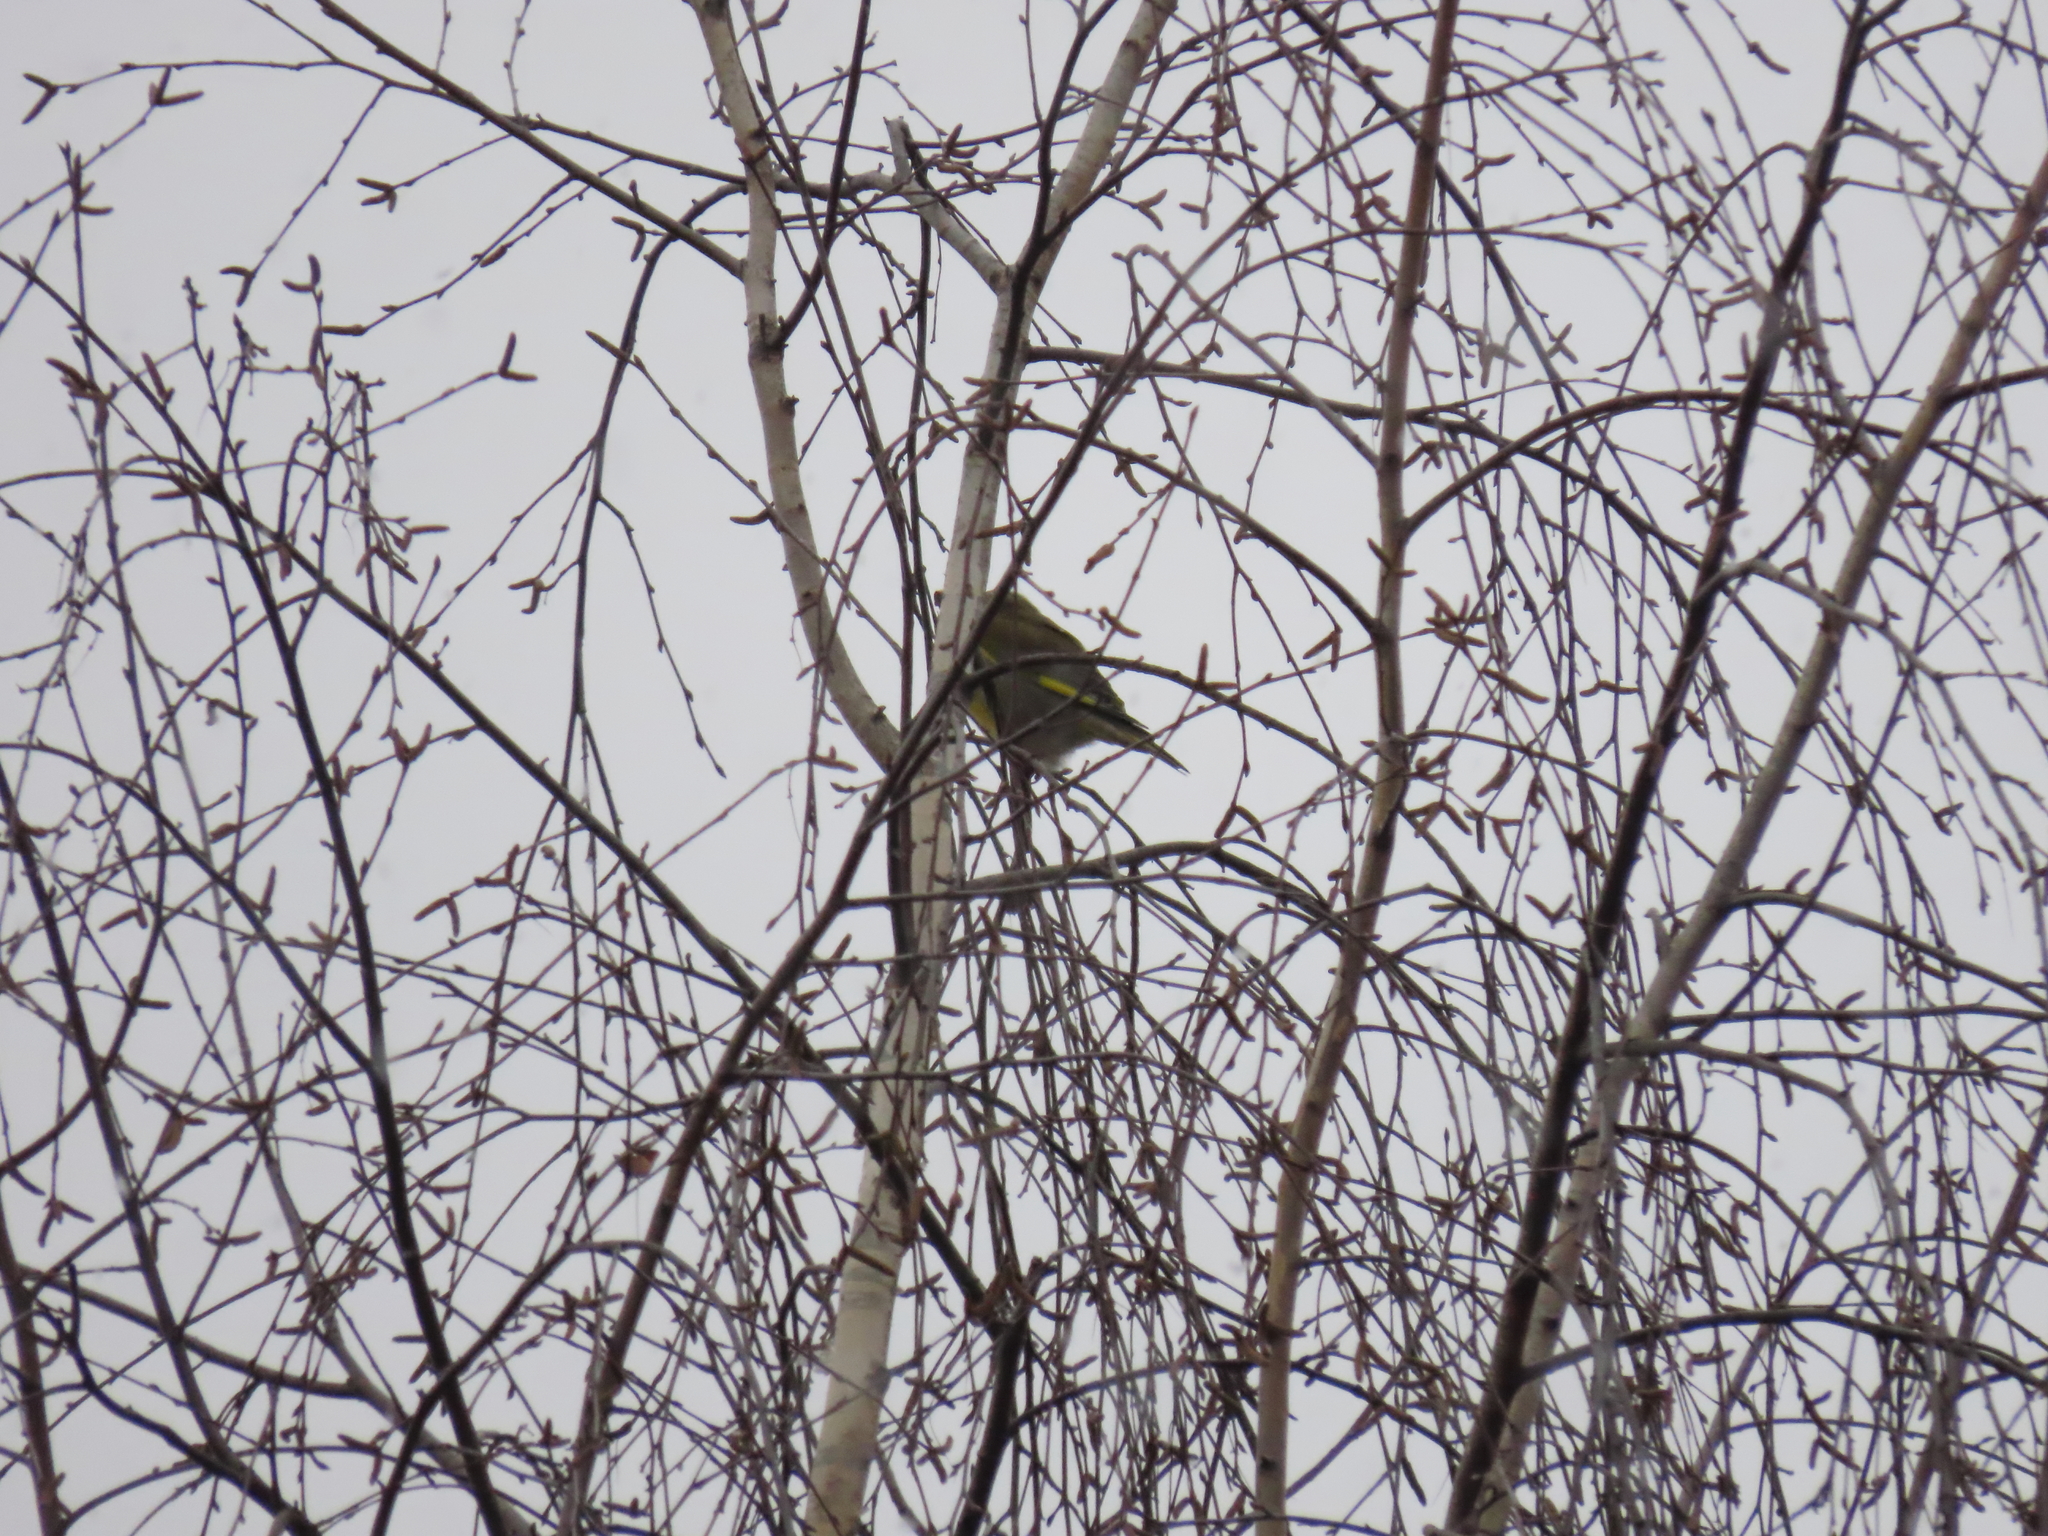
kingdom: Plantae
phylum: Tracheophyta
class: Liliopsida
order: Poales
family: Poaceae
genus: Chloris
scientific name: Chloris chloris
